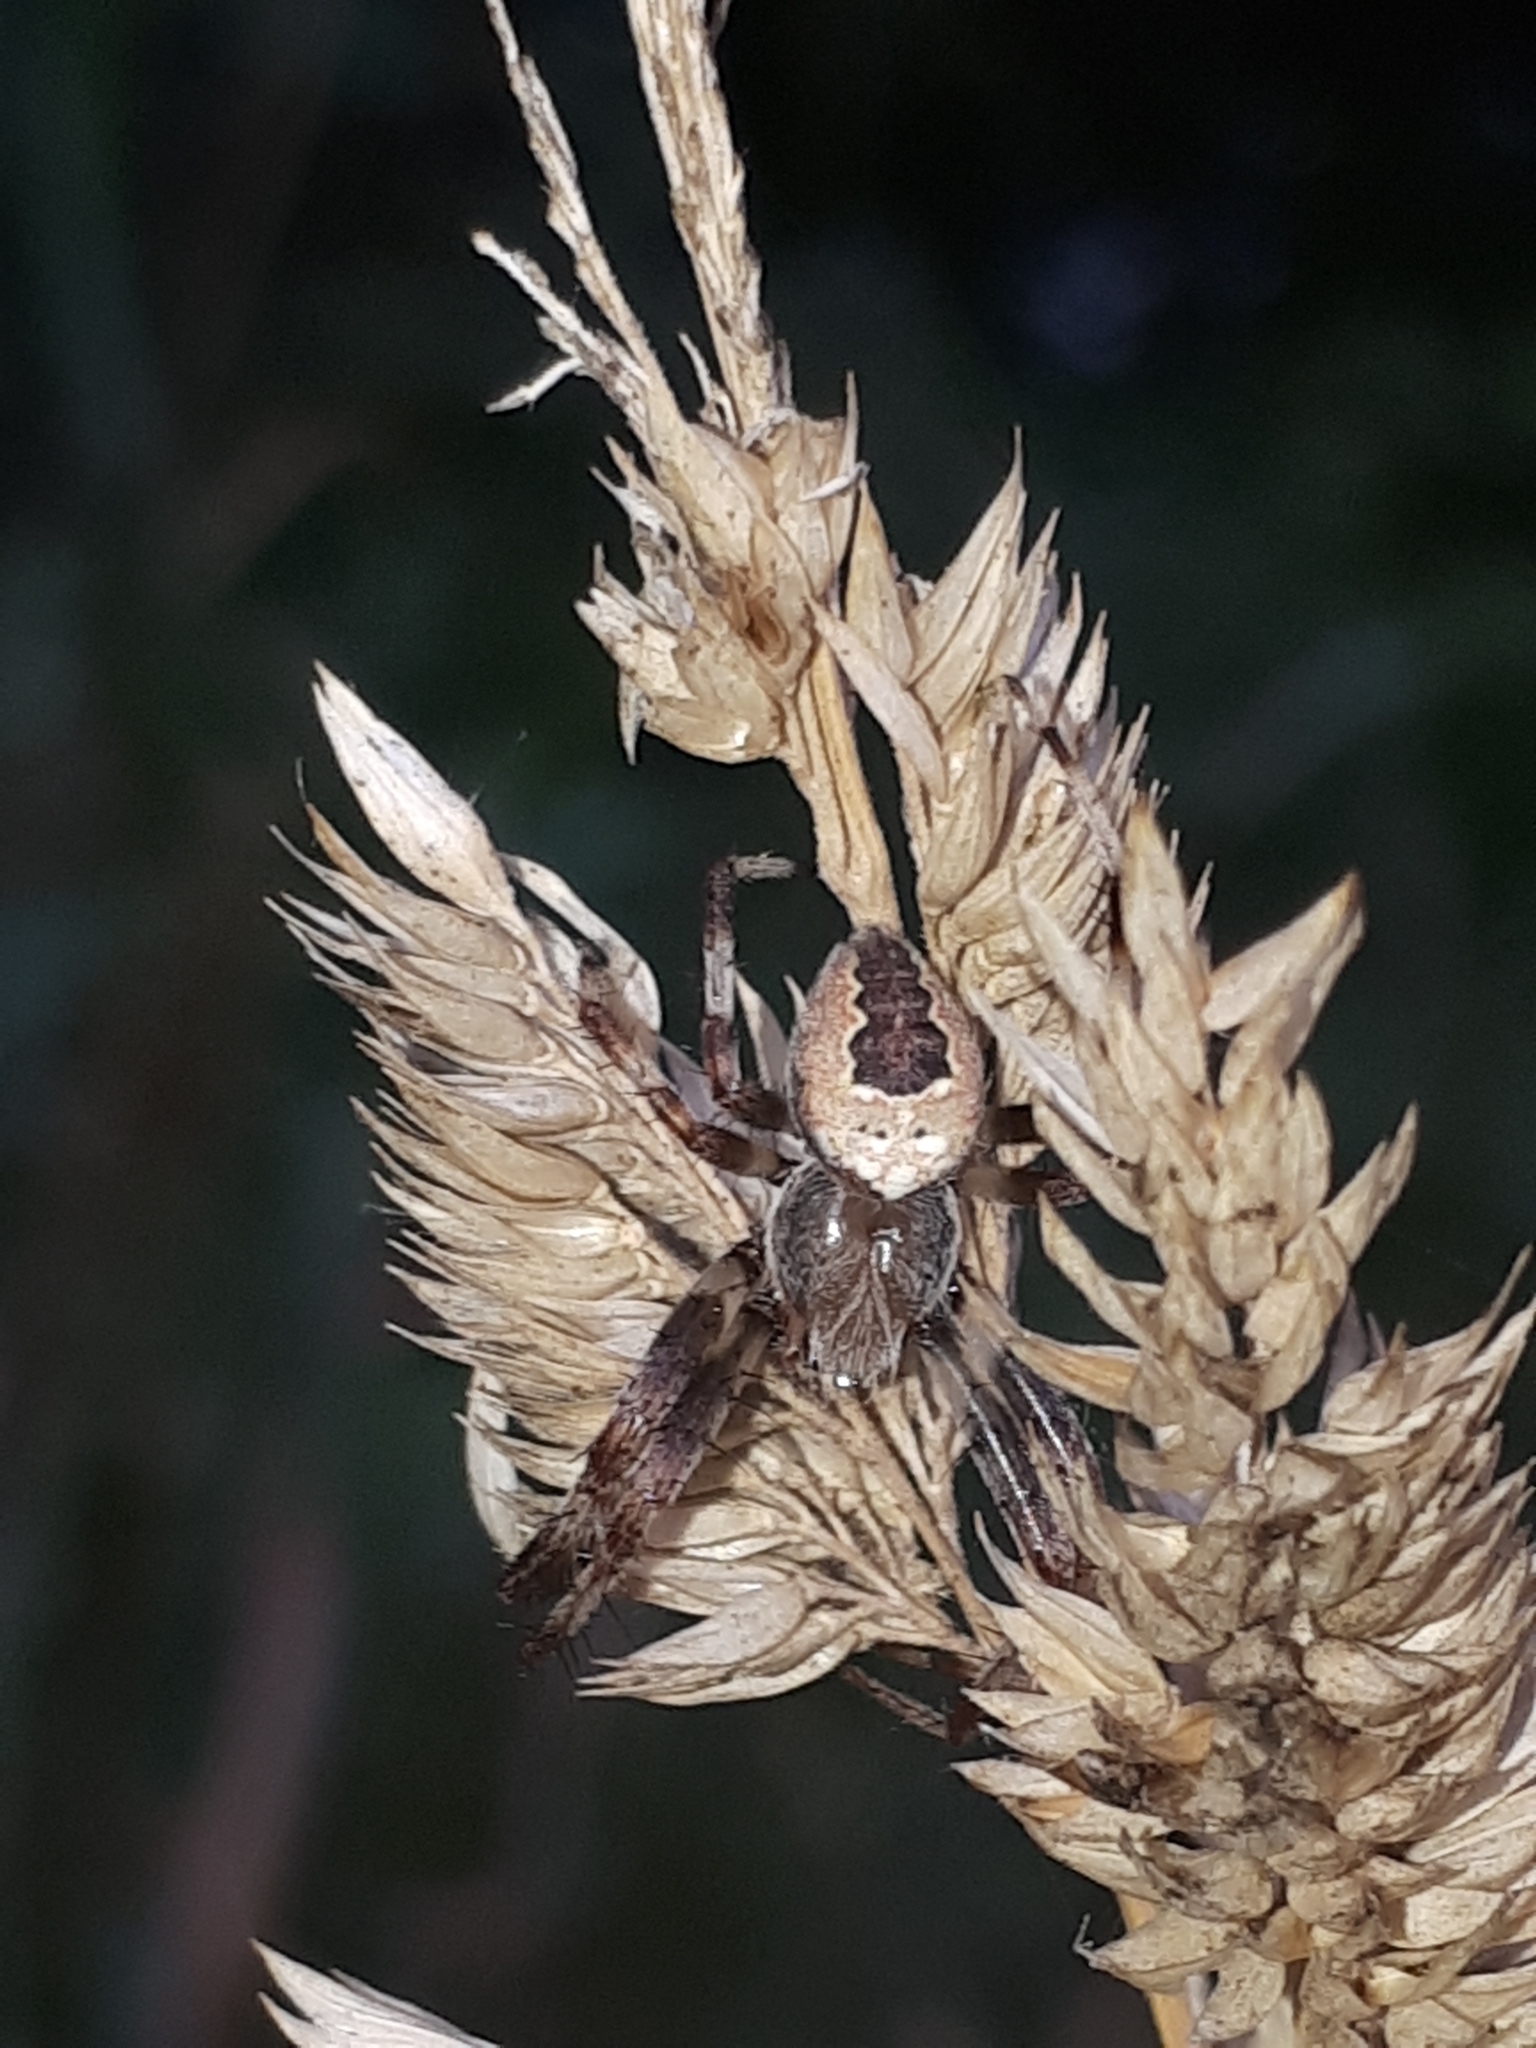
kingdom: Animalia
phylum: Arthropoda
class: Arachnida
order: Araneae
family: Araneidae
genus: Araneus
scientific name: Araneus marmoreus
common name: Marbled orbweaver
